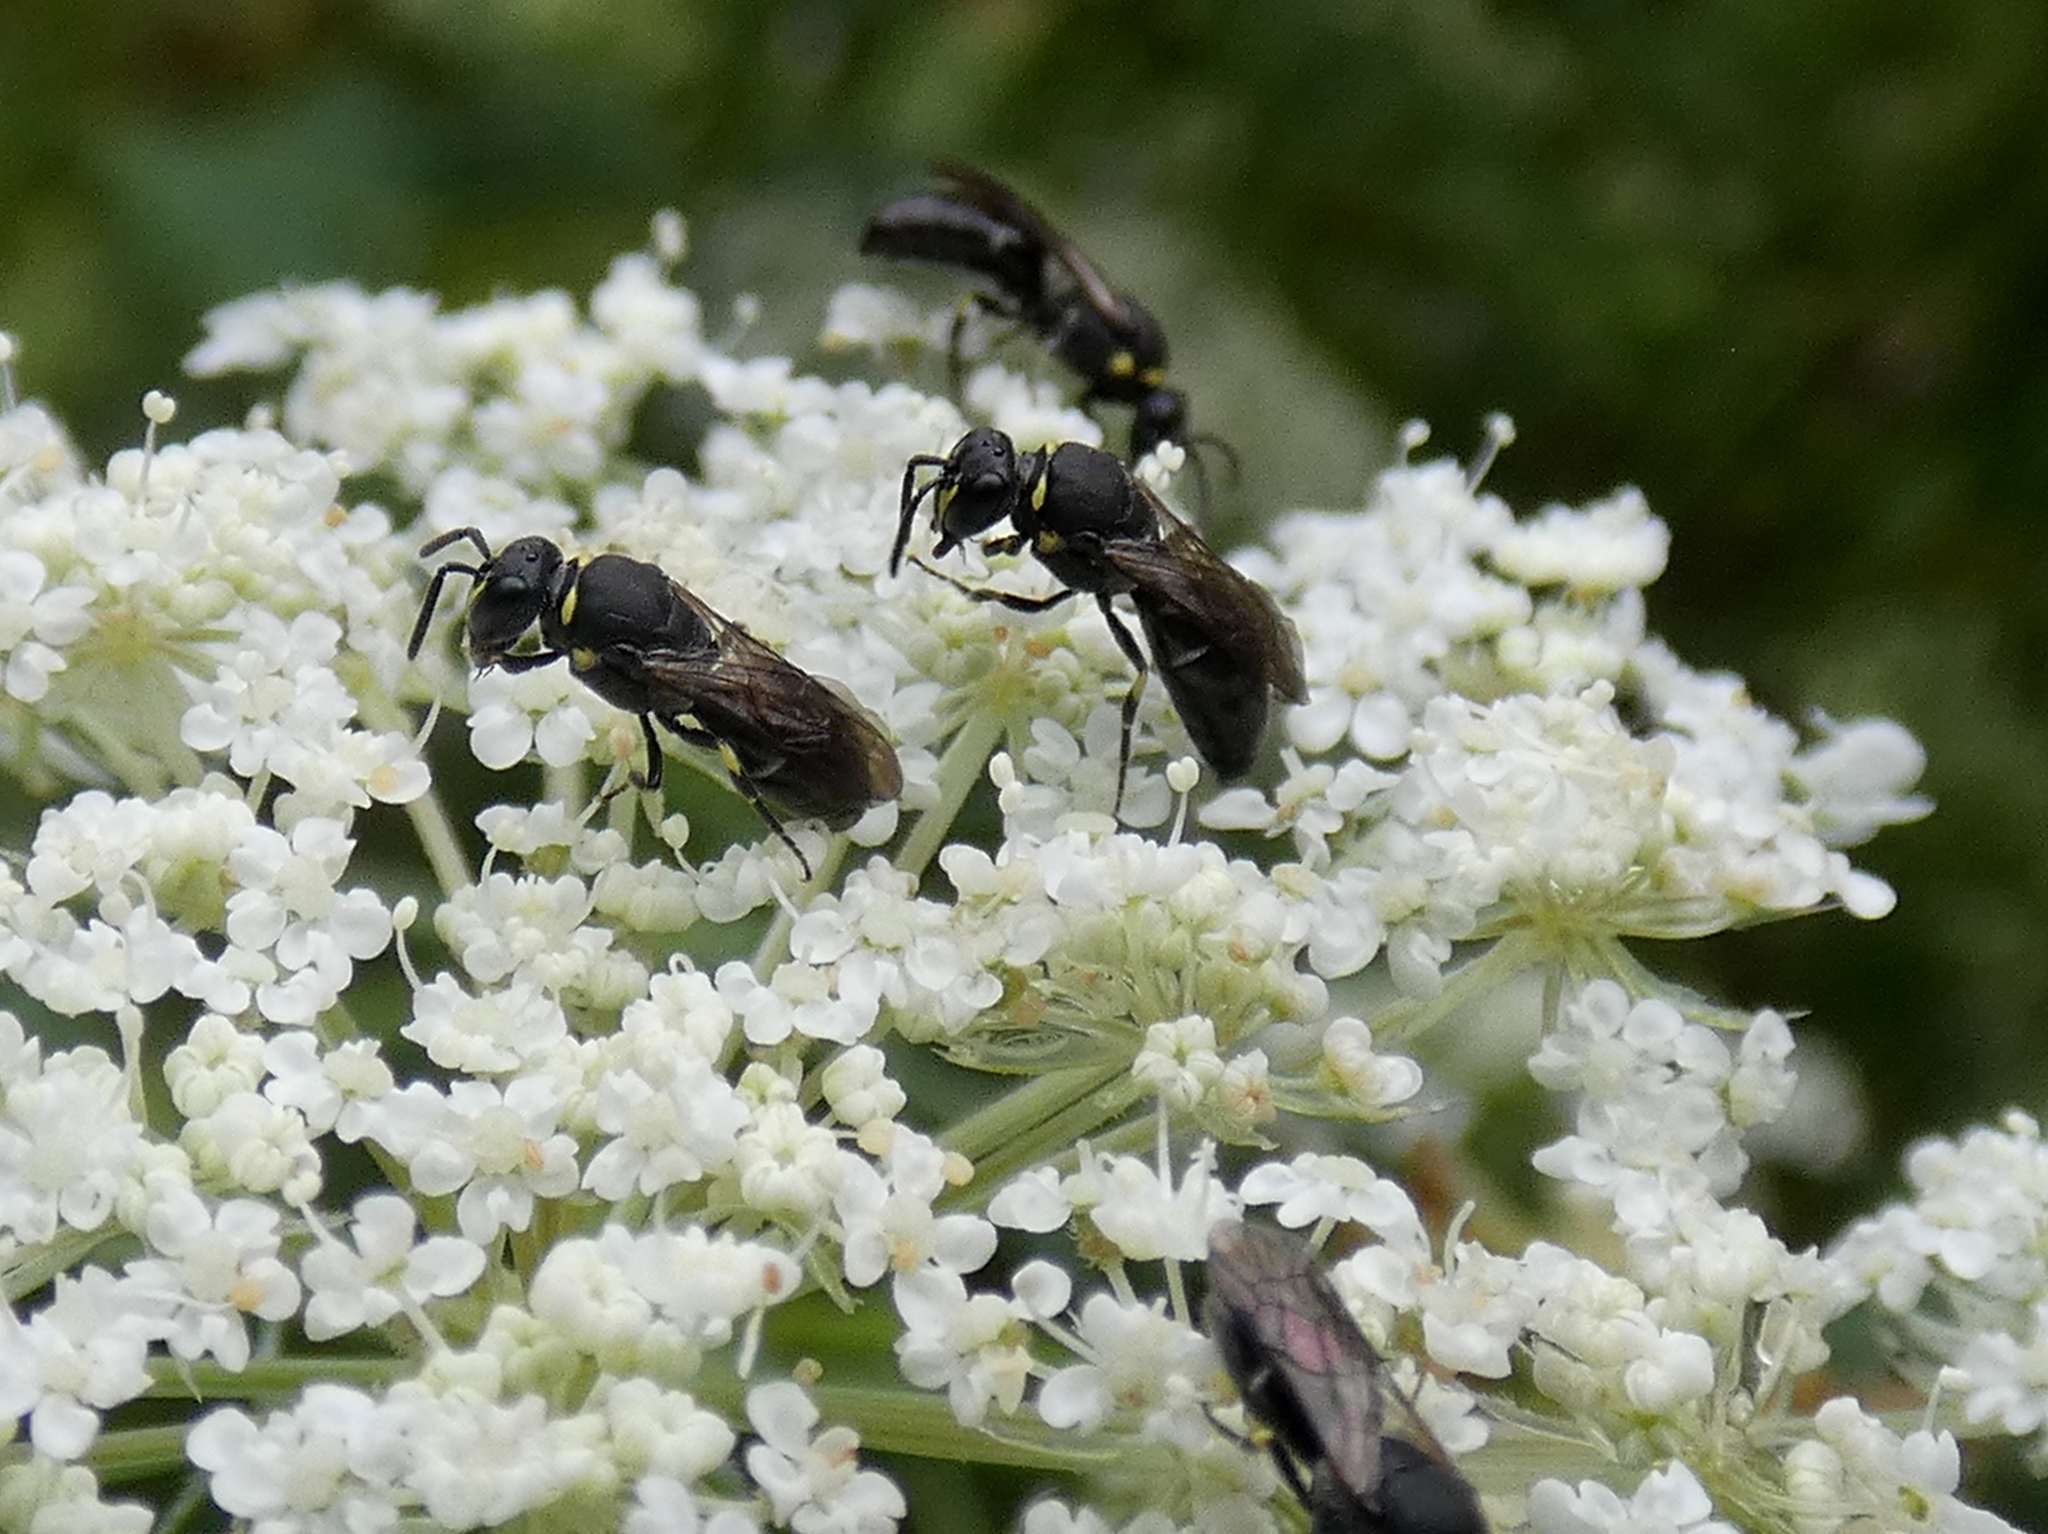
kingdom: Animalia
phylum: Arthropoda
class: Insecta
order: Hymenoptera
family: Colletidae
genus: Hylaeus
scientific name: Hylaeus modestus
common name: Yellow-faced bee
